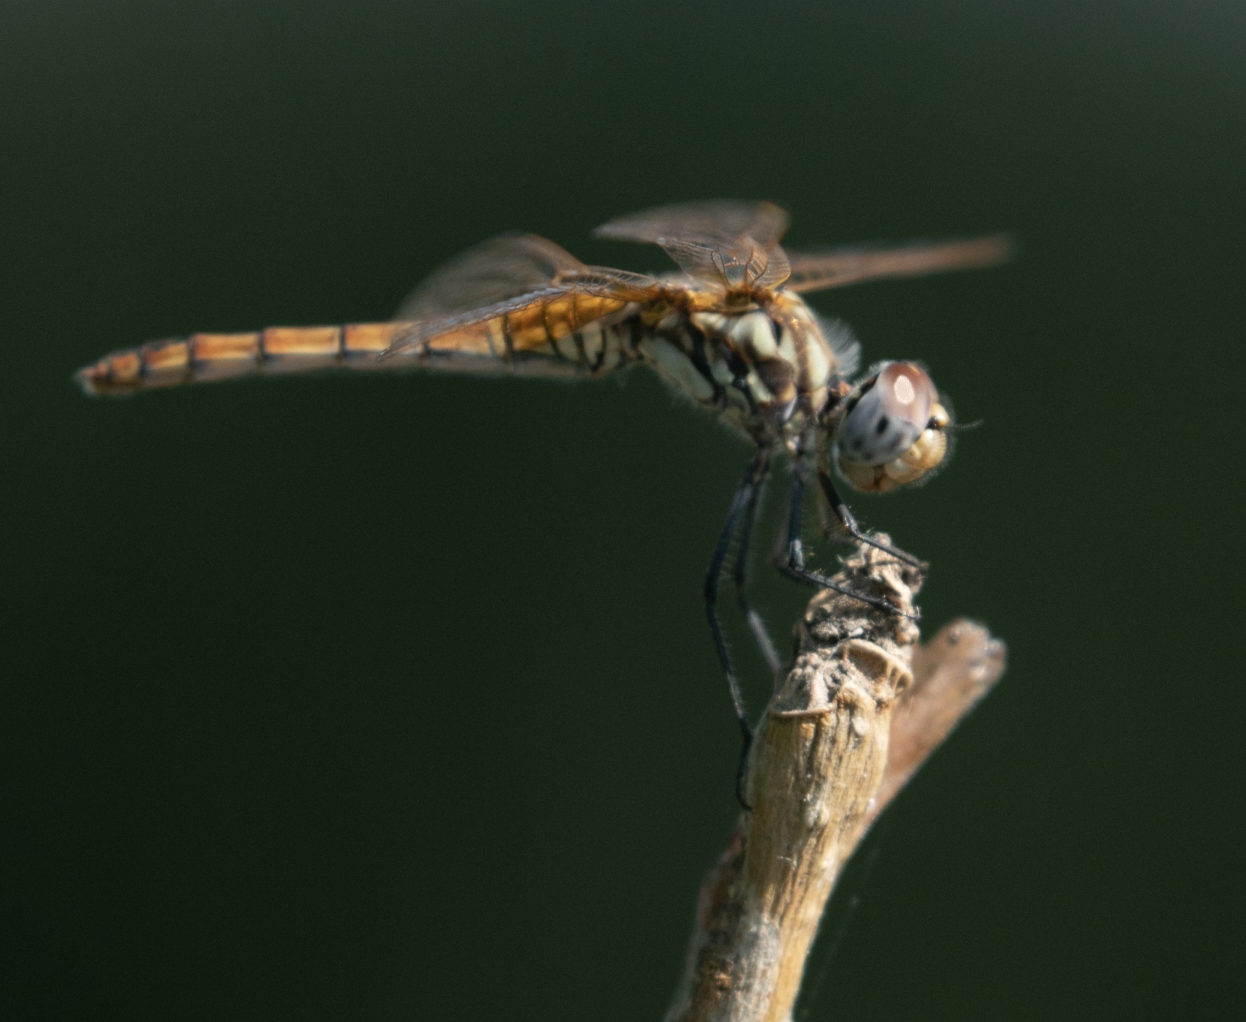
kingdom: Animalia
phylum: Arthropoda
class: Insecta
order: Odonata
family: Libellulidae
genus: Trithemis
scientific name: Trithemis annulata
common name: Violet dropwing
